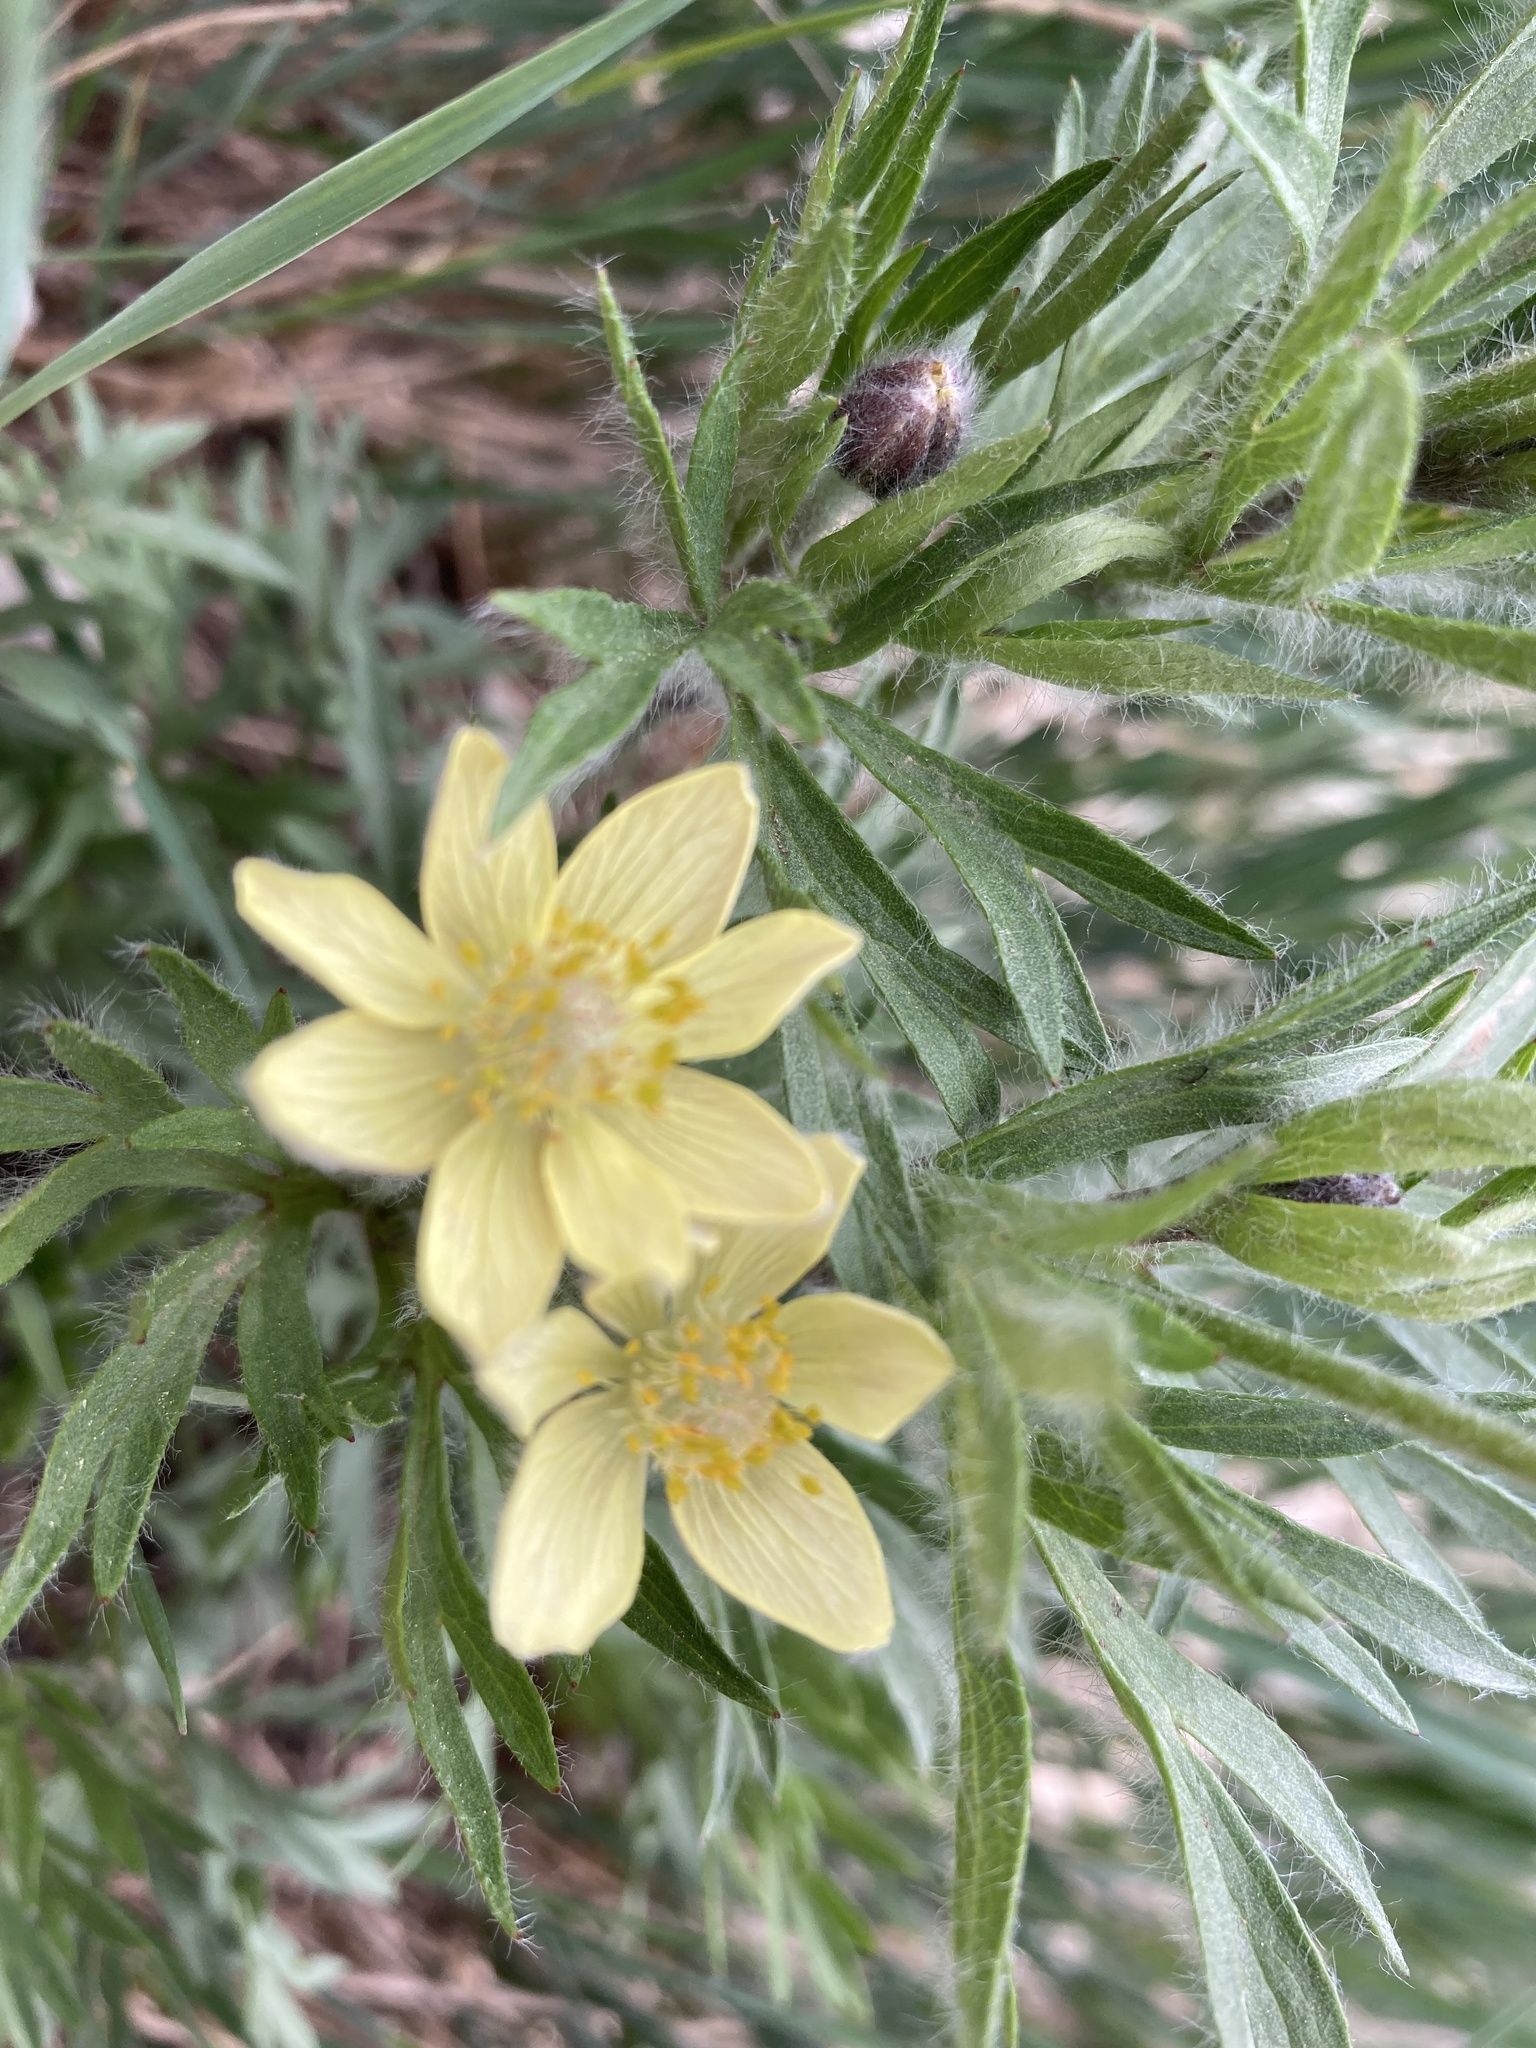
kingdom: Plantae
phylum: Tracheophyta
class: Magnoliopsida
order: Ranunculales
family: Ranunculaceae
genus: Anemone
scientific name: Anemone cylindrica
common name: Candle anemone
